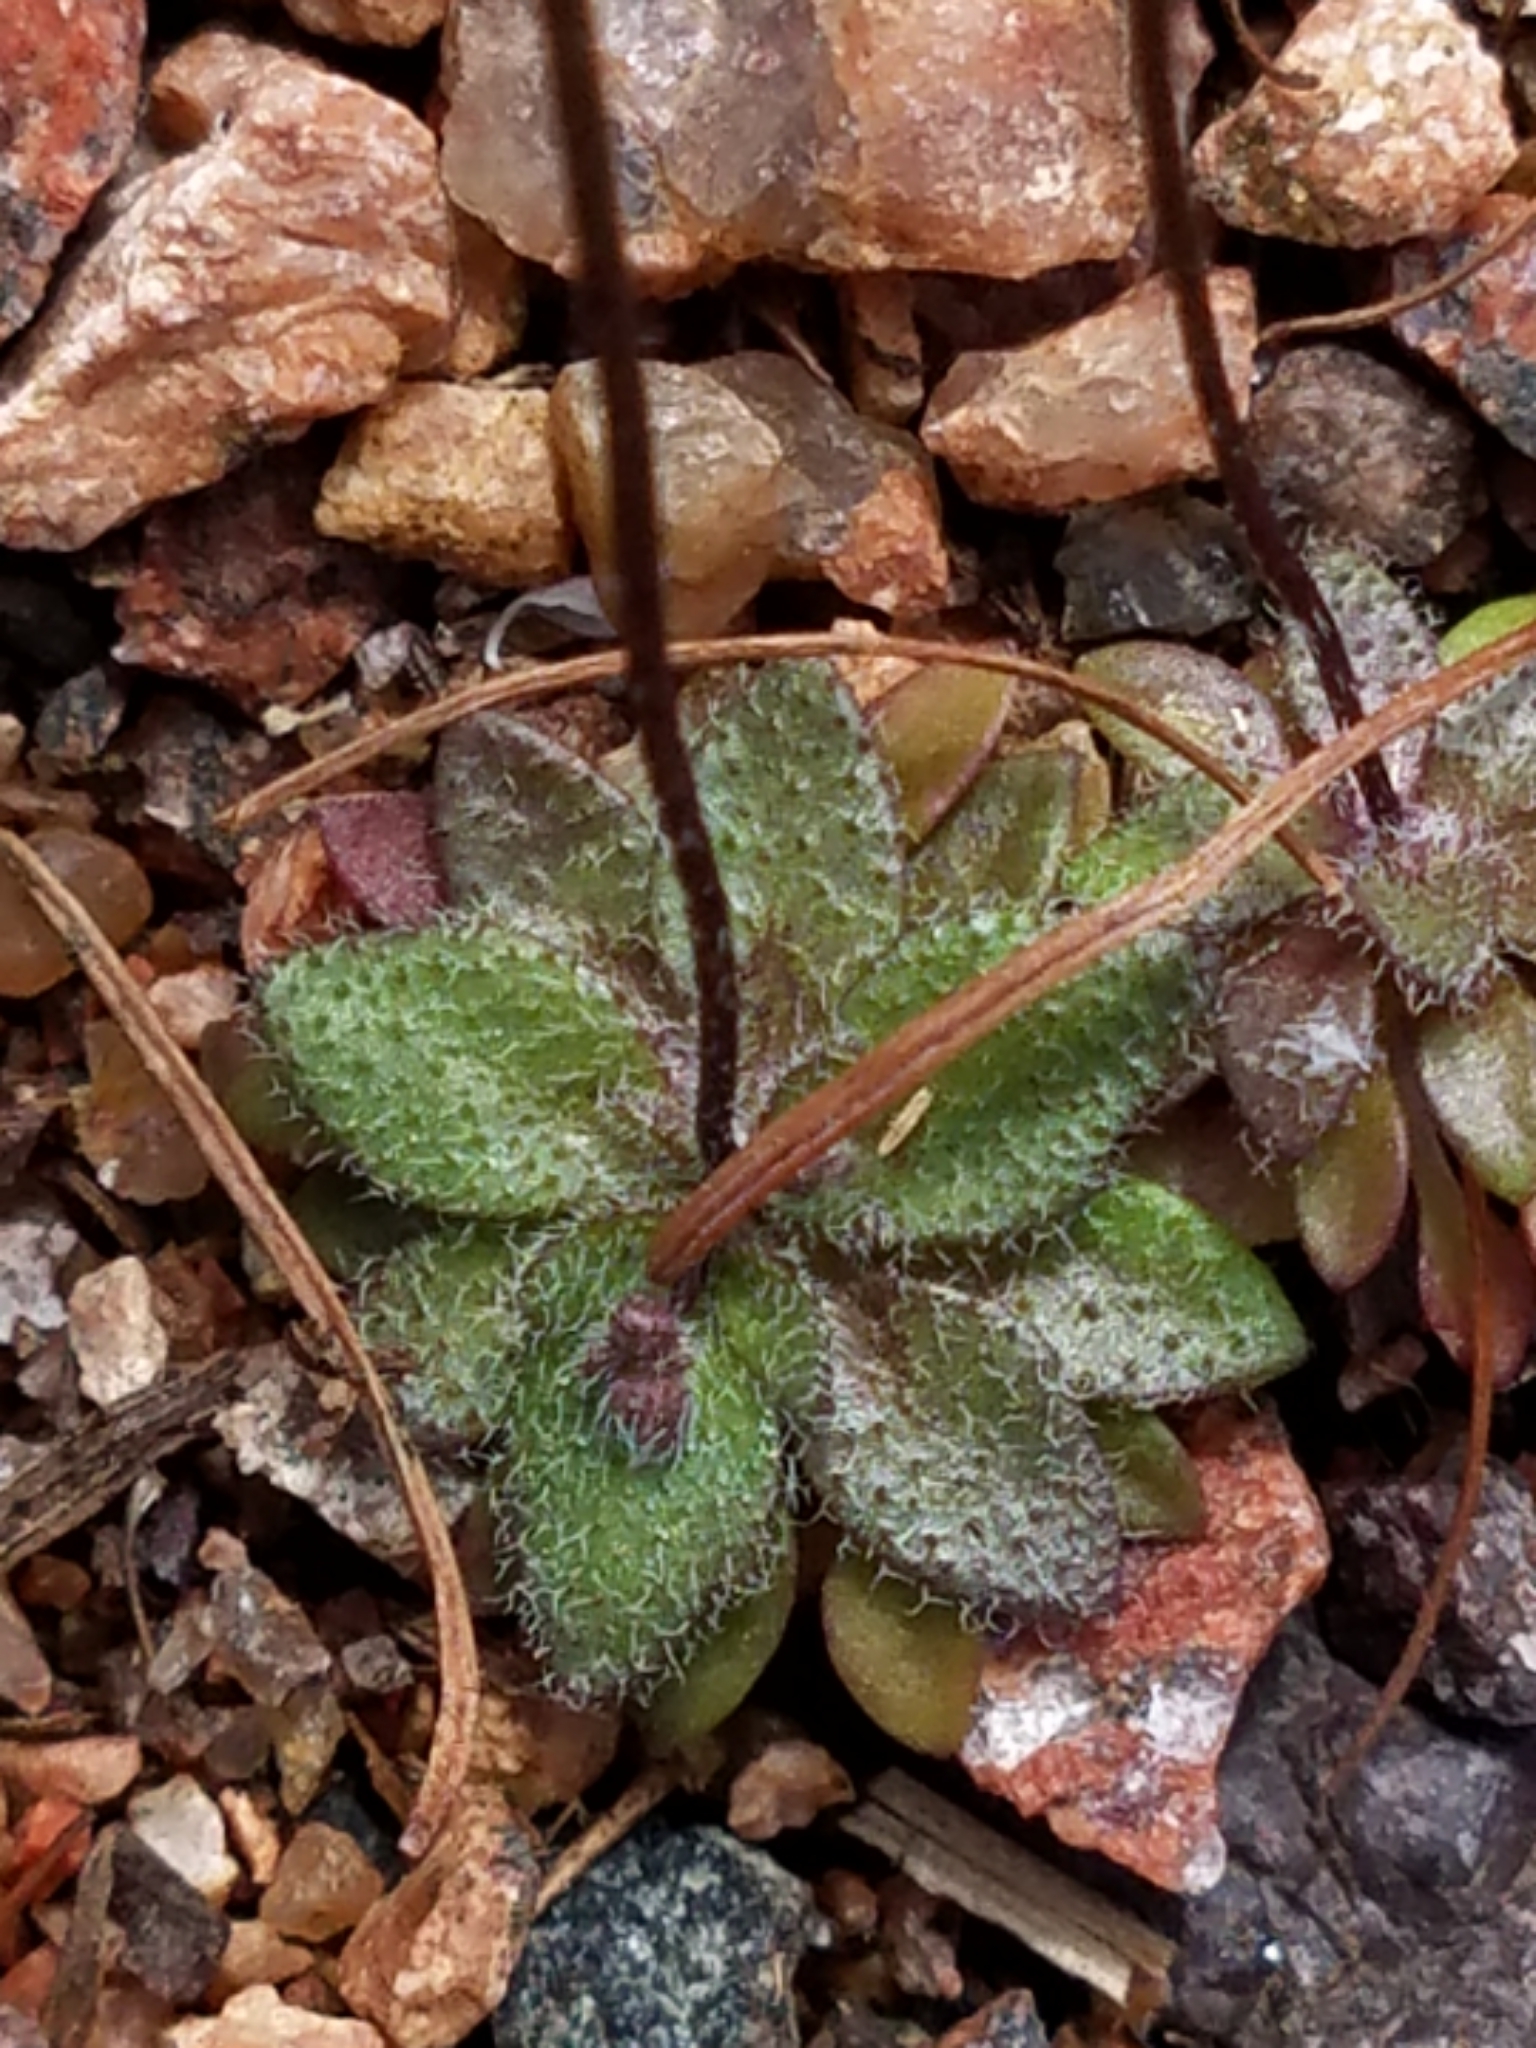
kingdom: Plantae
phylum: Tracheophyta
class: Magnoliopsida
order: Brassicales
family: Brassicaceae
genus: Draba
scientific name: Draba verna
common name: Spring draba
